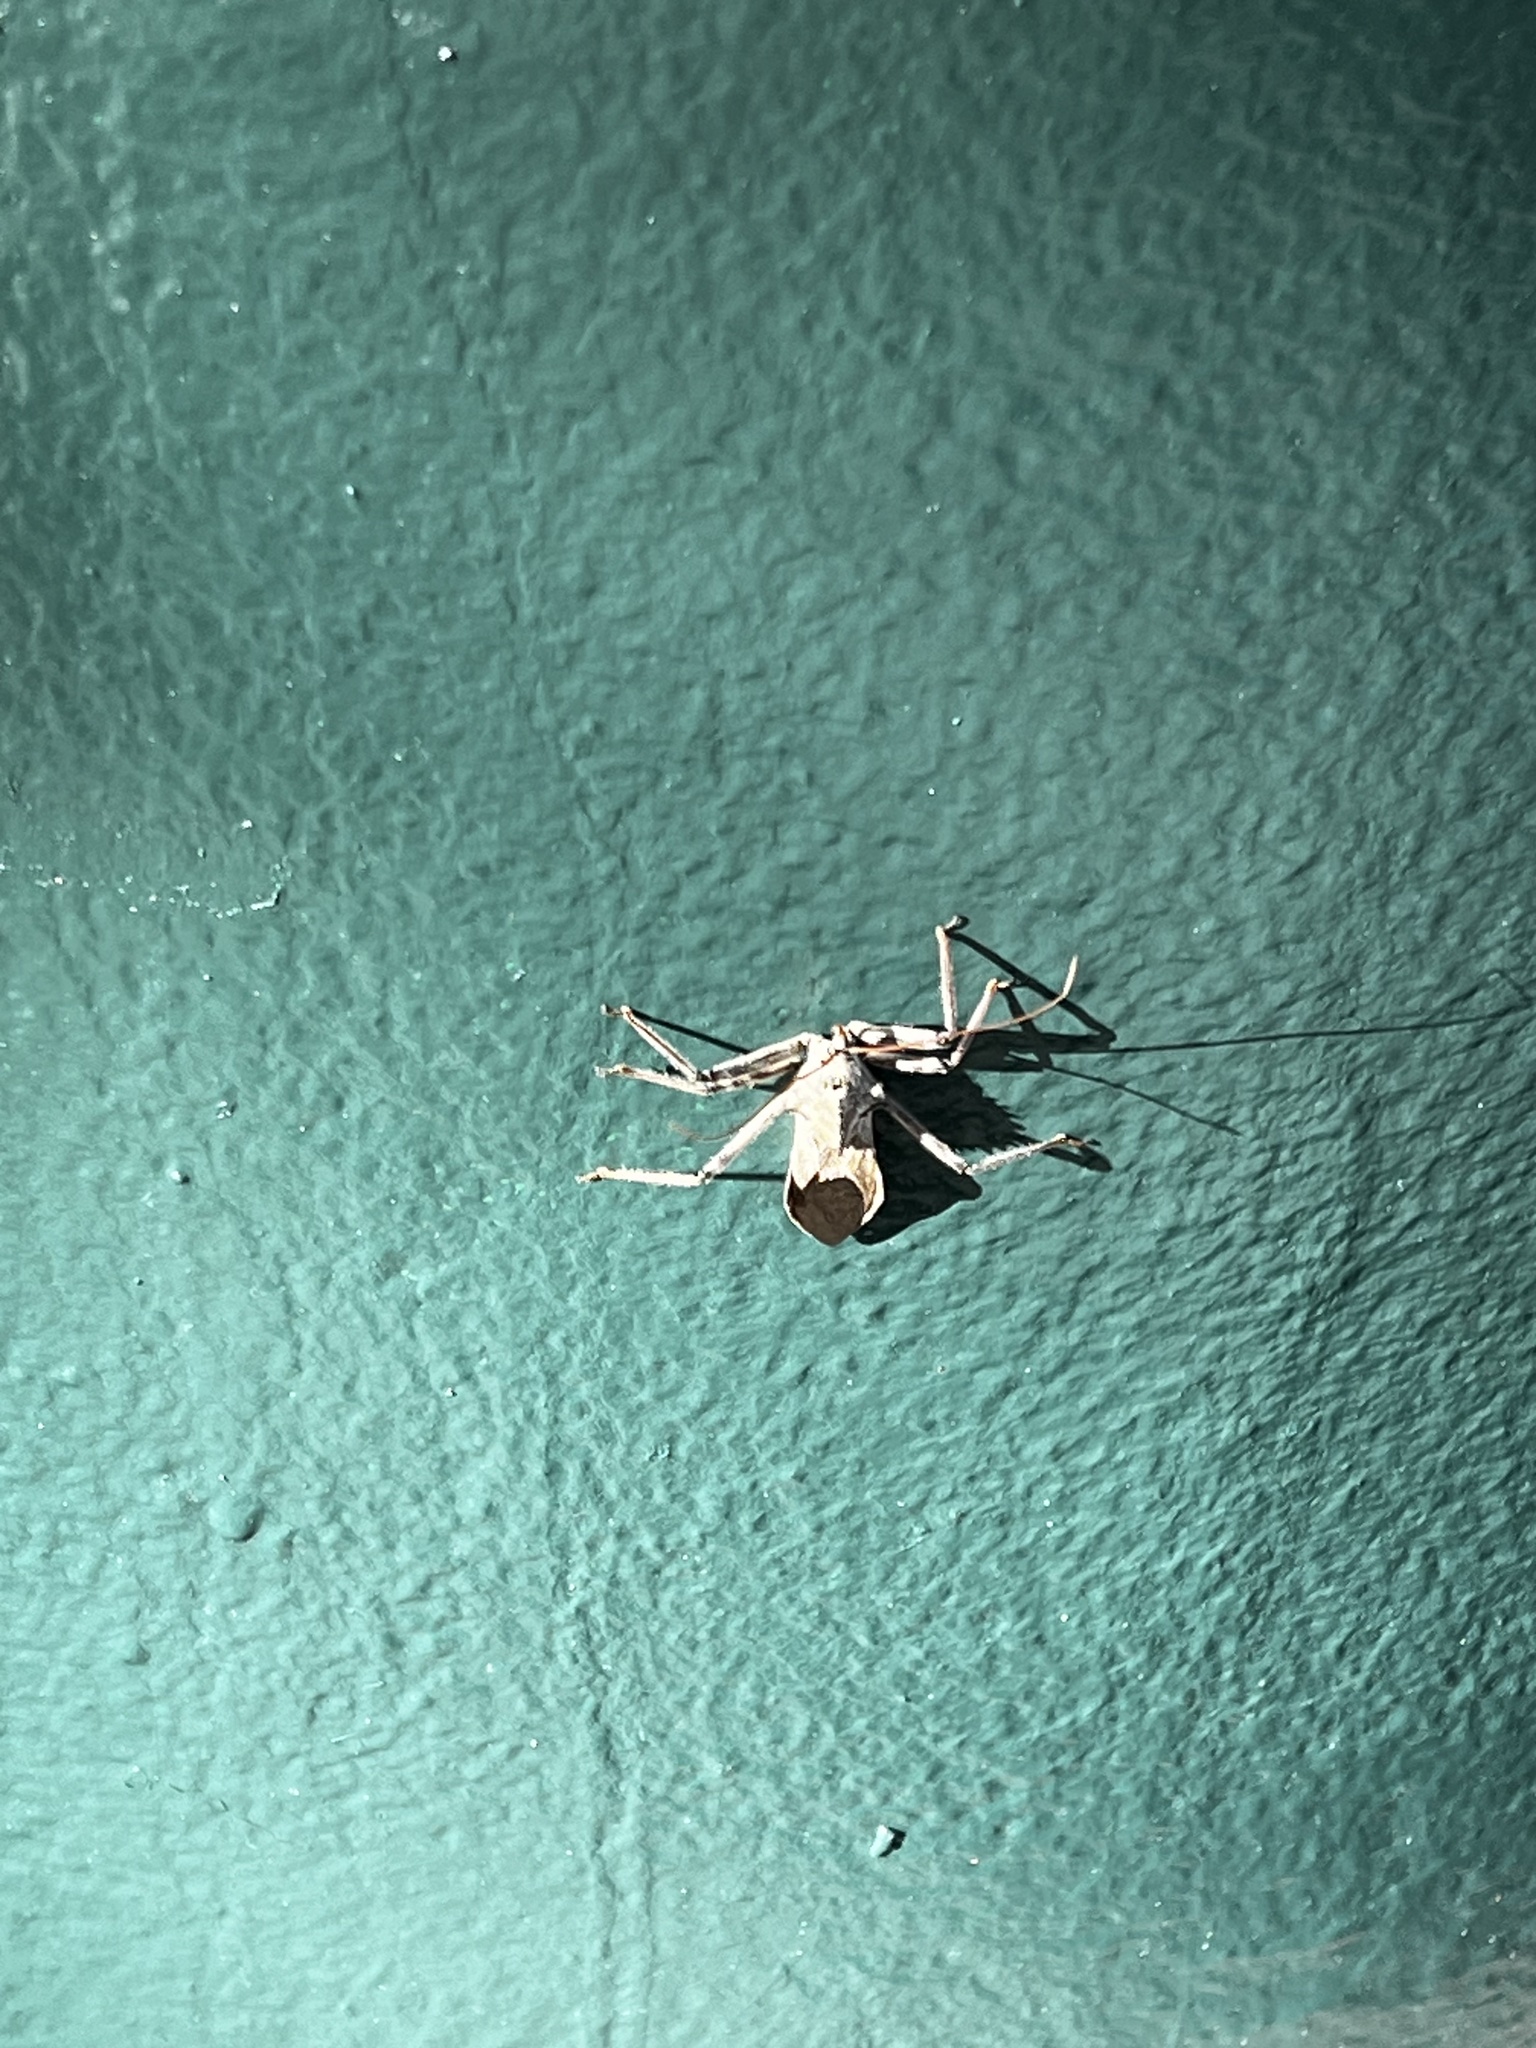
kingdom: Animalia
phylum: Arthropoda
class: Insecta
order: Hemiptera
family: Reduviidae
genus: Arilus
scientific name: Arilus cristatus
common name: North american wheel bug
